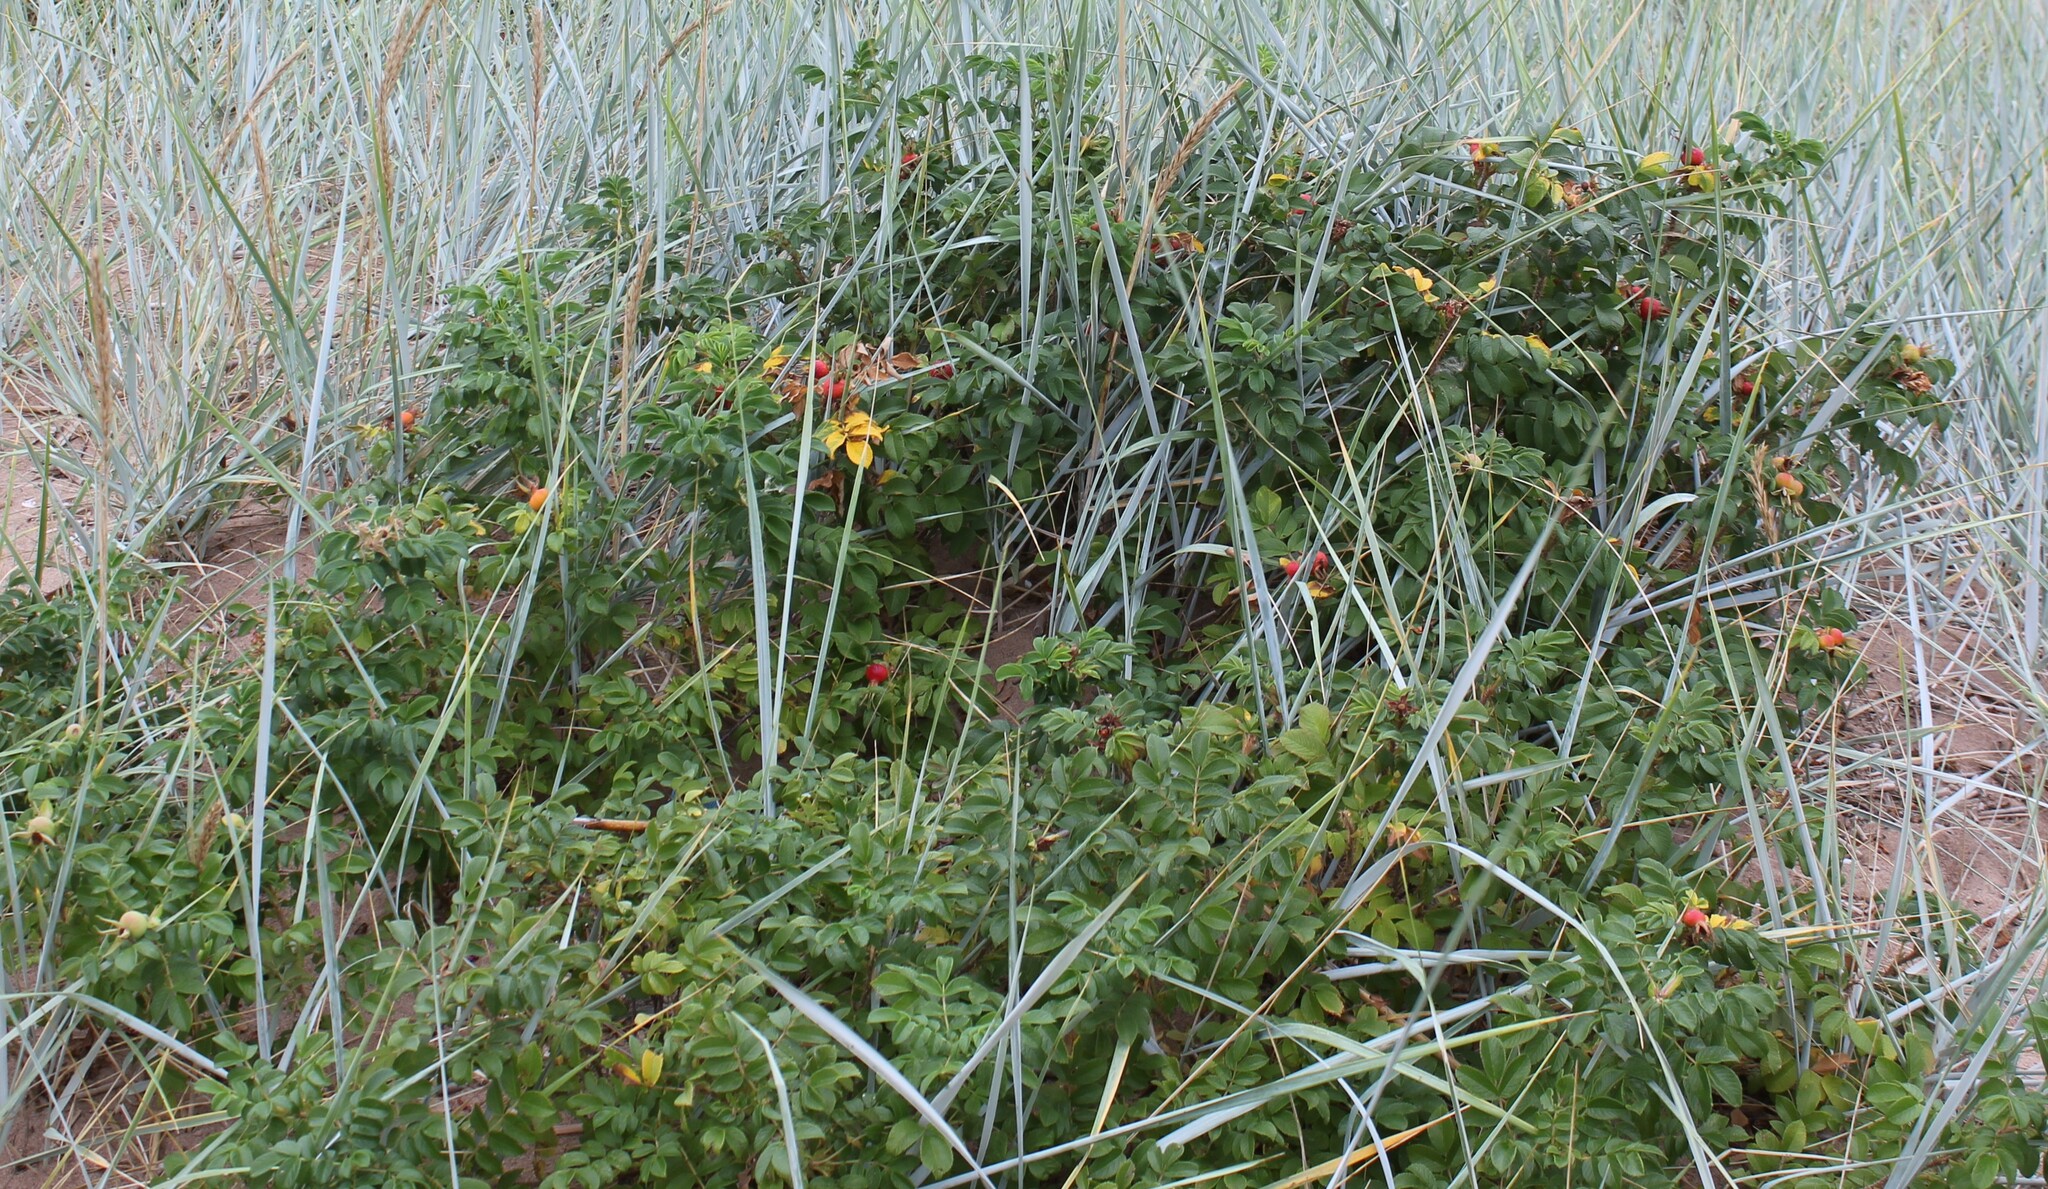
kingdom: Plantae
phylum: Tracheophyta
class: Magnoliopsida
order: Rosales
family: Rosaceae
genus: Rosa
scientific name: Rosa rugosa
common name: Japanese rose
